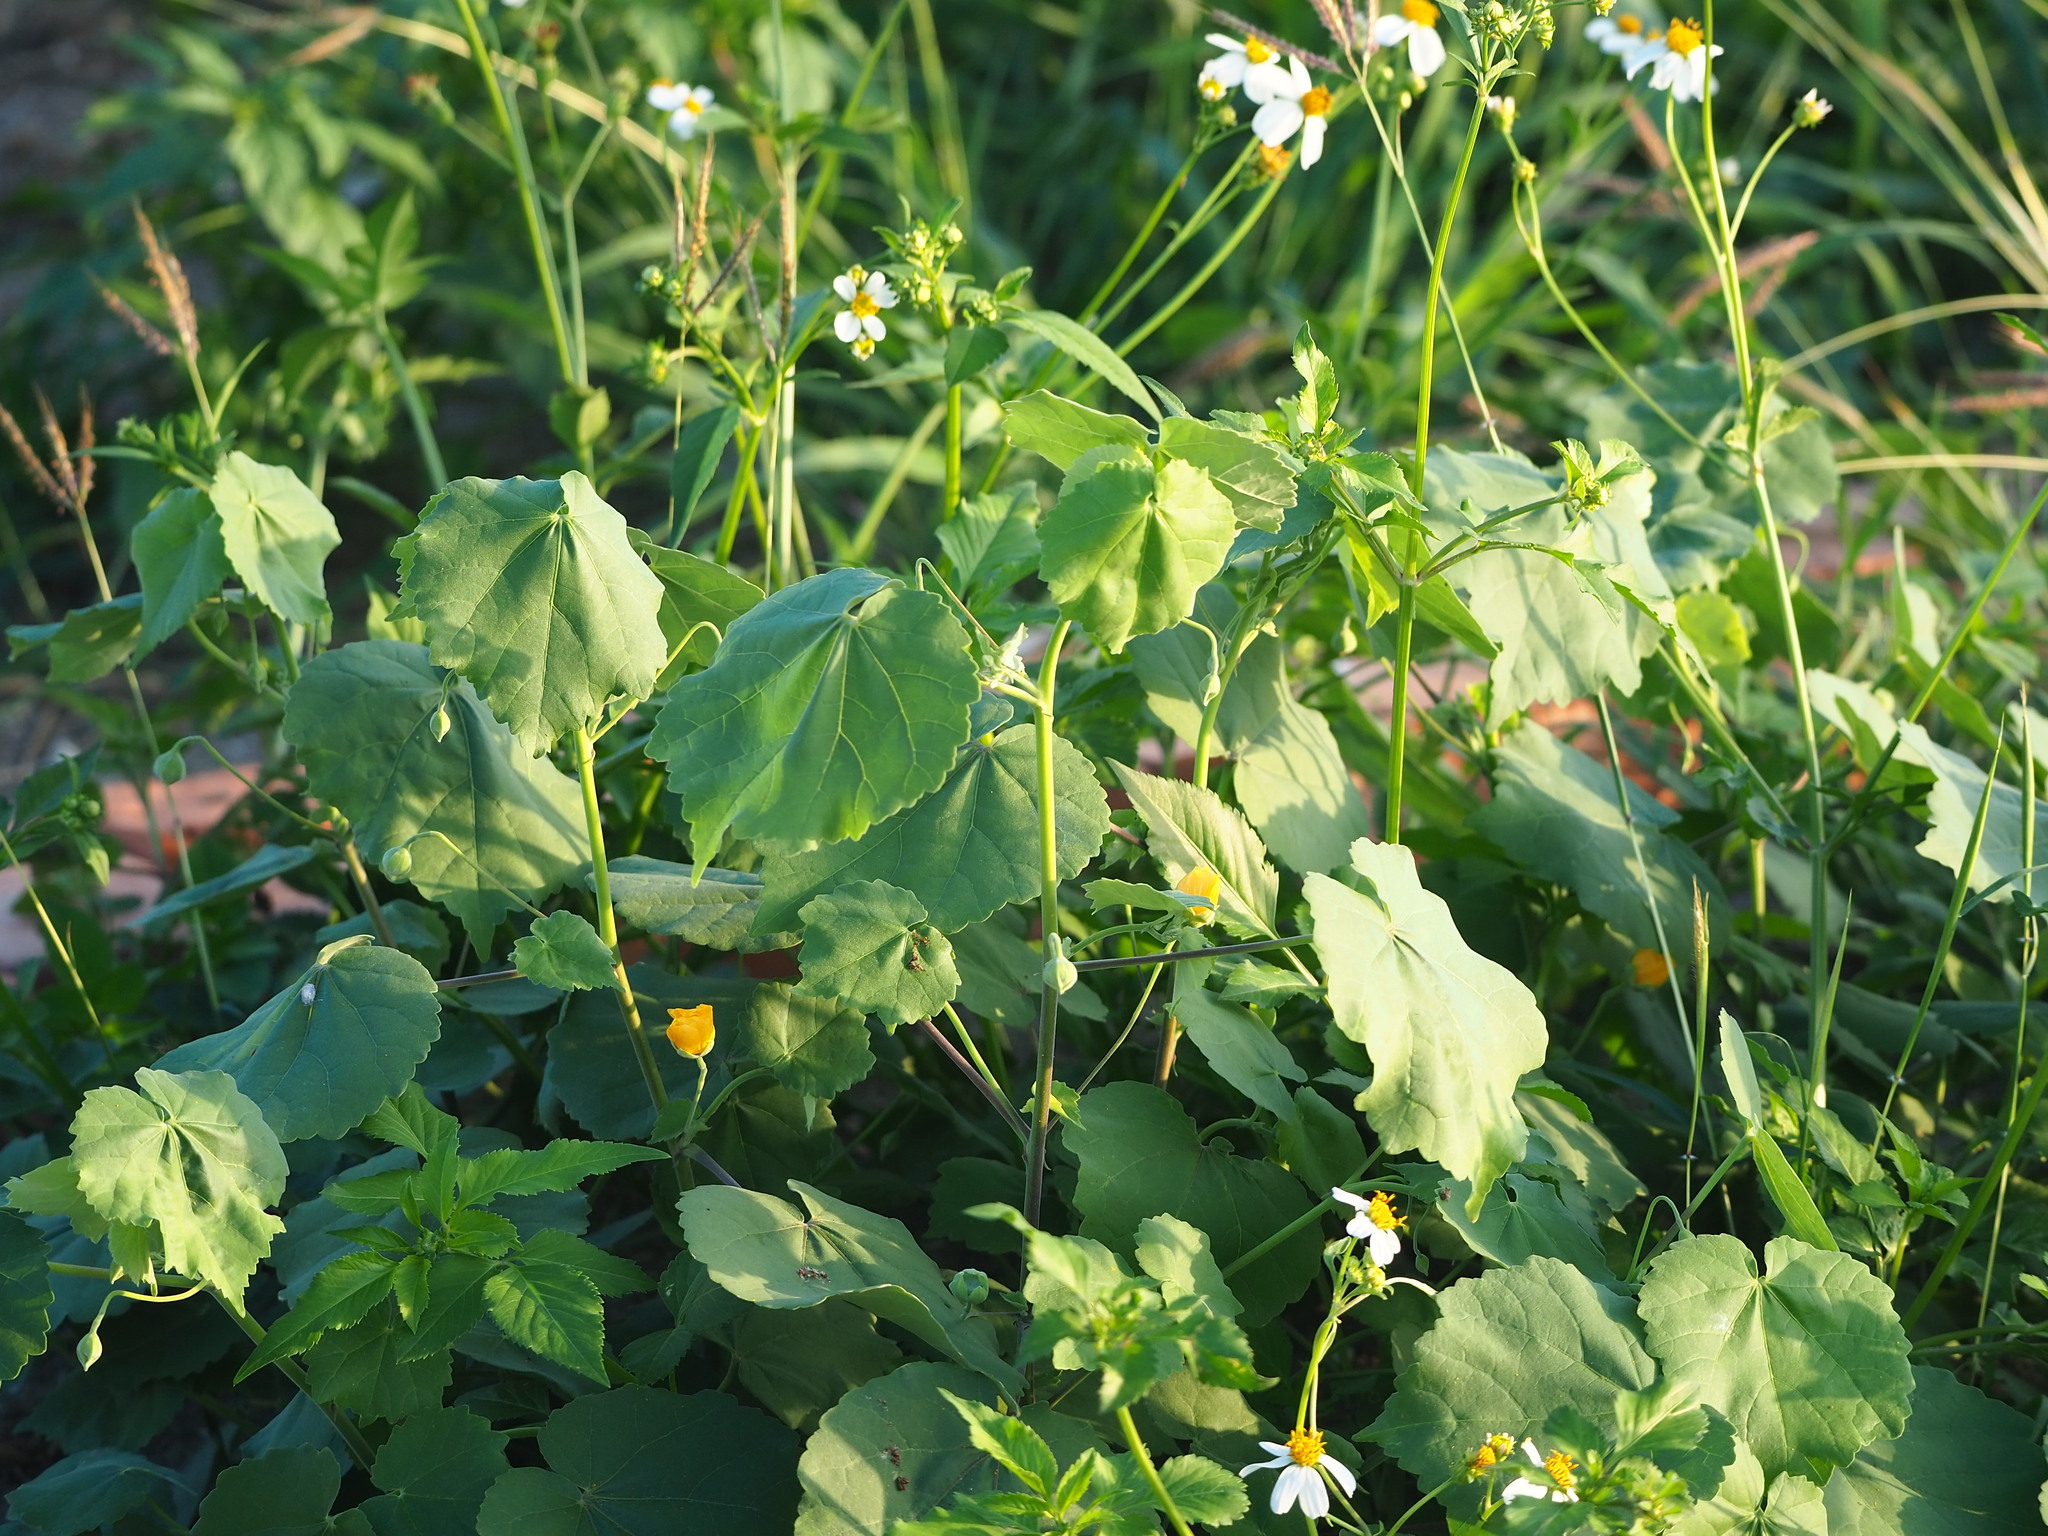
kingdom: Plantae
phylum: Tracheophyta
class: Magnoliopsida
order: Malvales
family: Malvaceae
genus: Abutilon
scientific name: Abutilon indicum
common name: Indian abutilon
